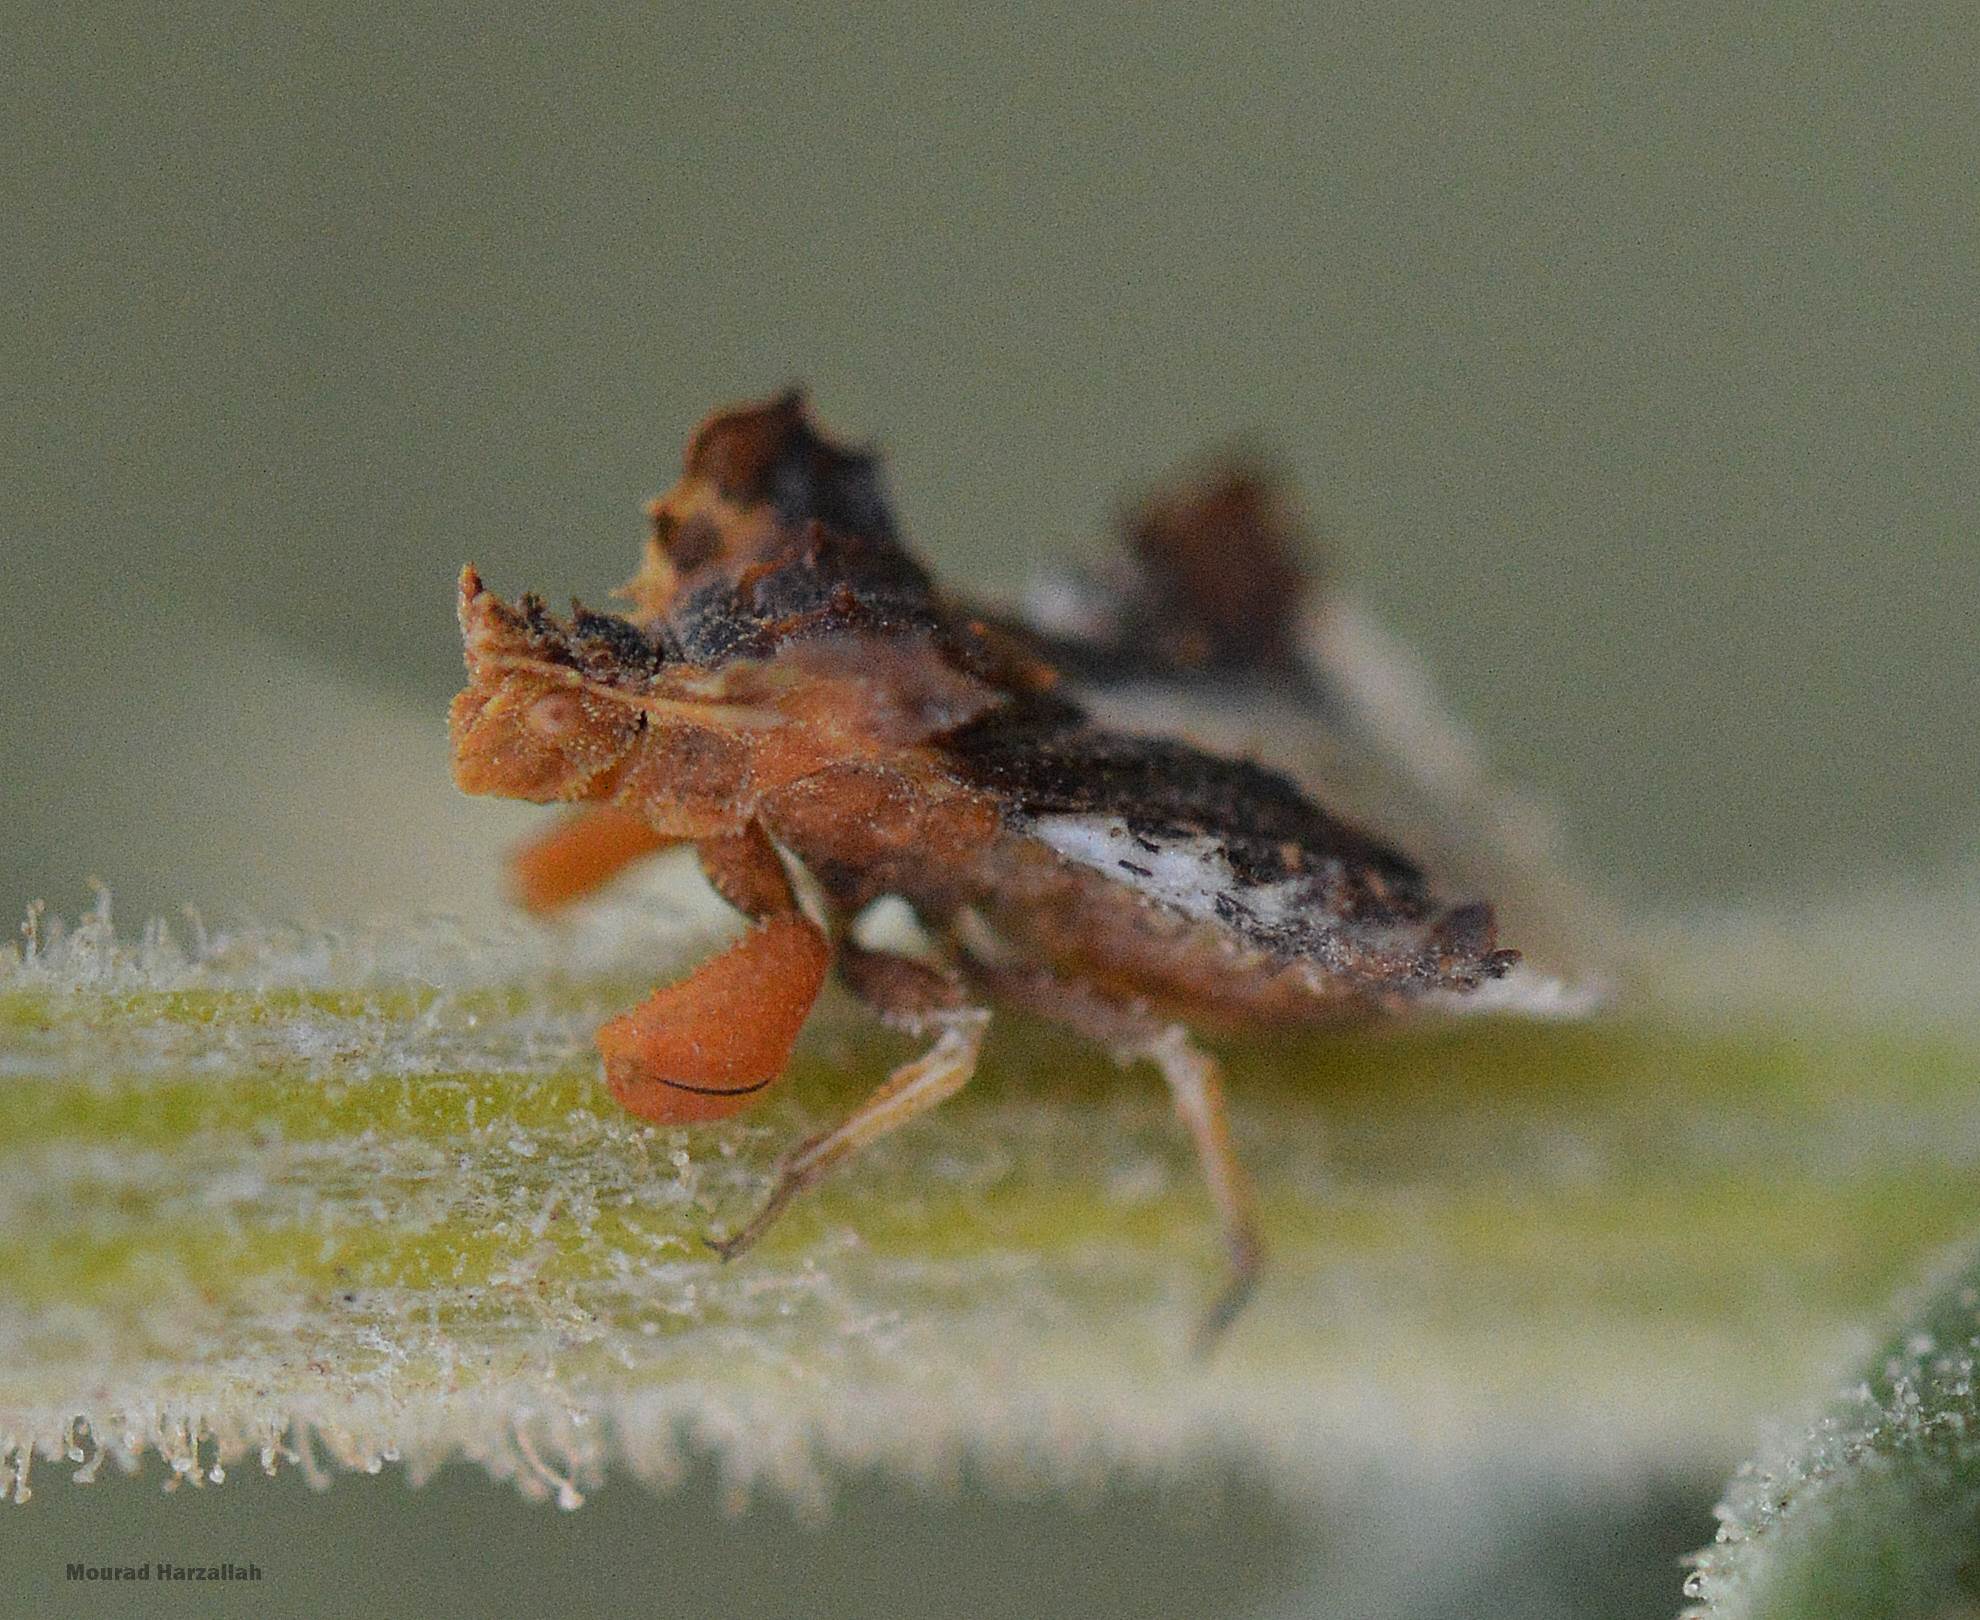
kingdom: Animalia
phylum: Arthropoda
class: Insecta
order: Hemiptera
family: Reduviidae
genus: Phymata
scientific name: Phymata monstrosa
